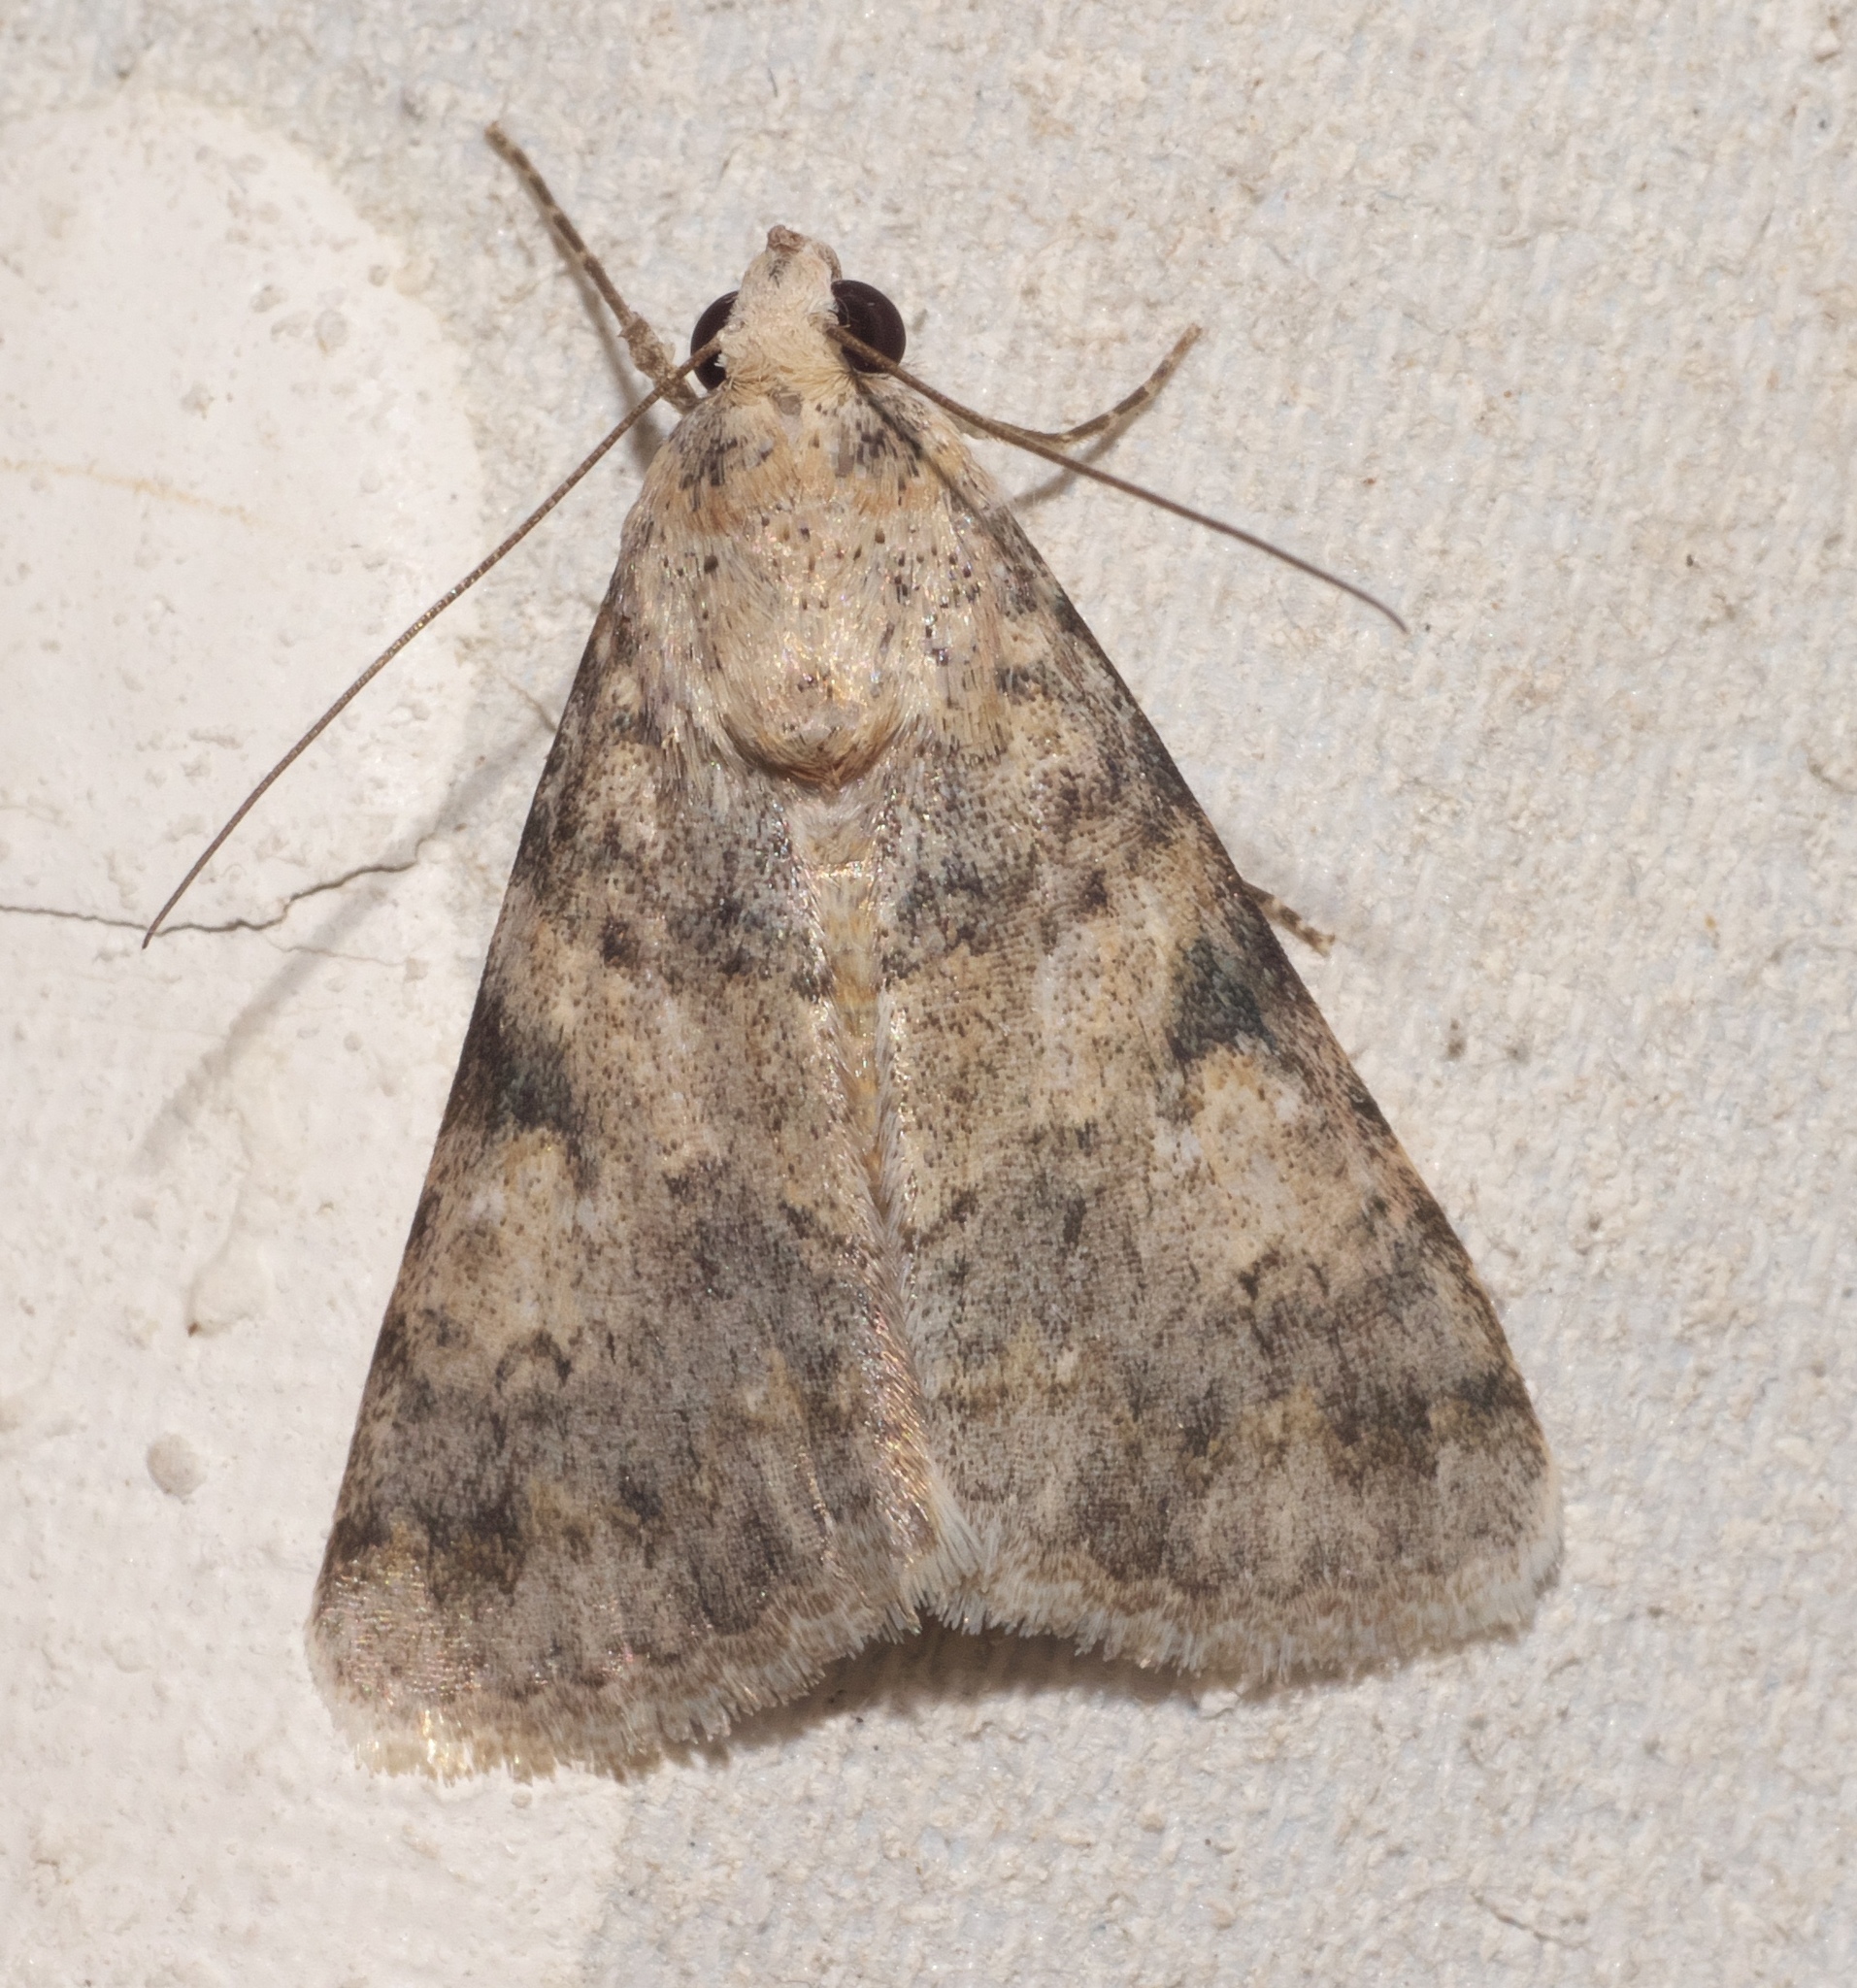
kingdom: Animalia
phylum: Arthropoda
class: Insecta
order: Lepidoptera
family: Erebidae
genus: Melipotis
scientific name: Melipotis jucunda
